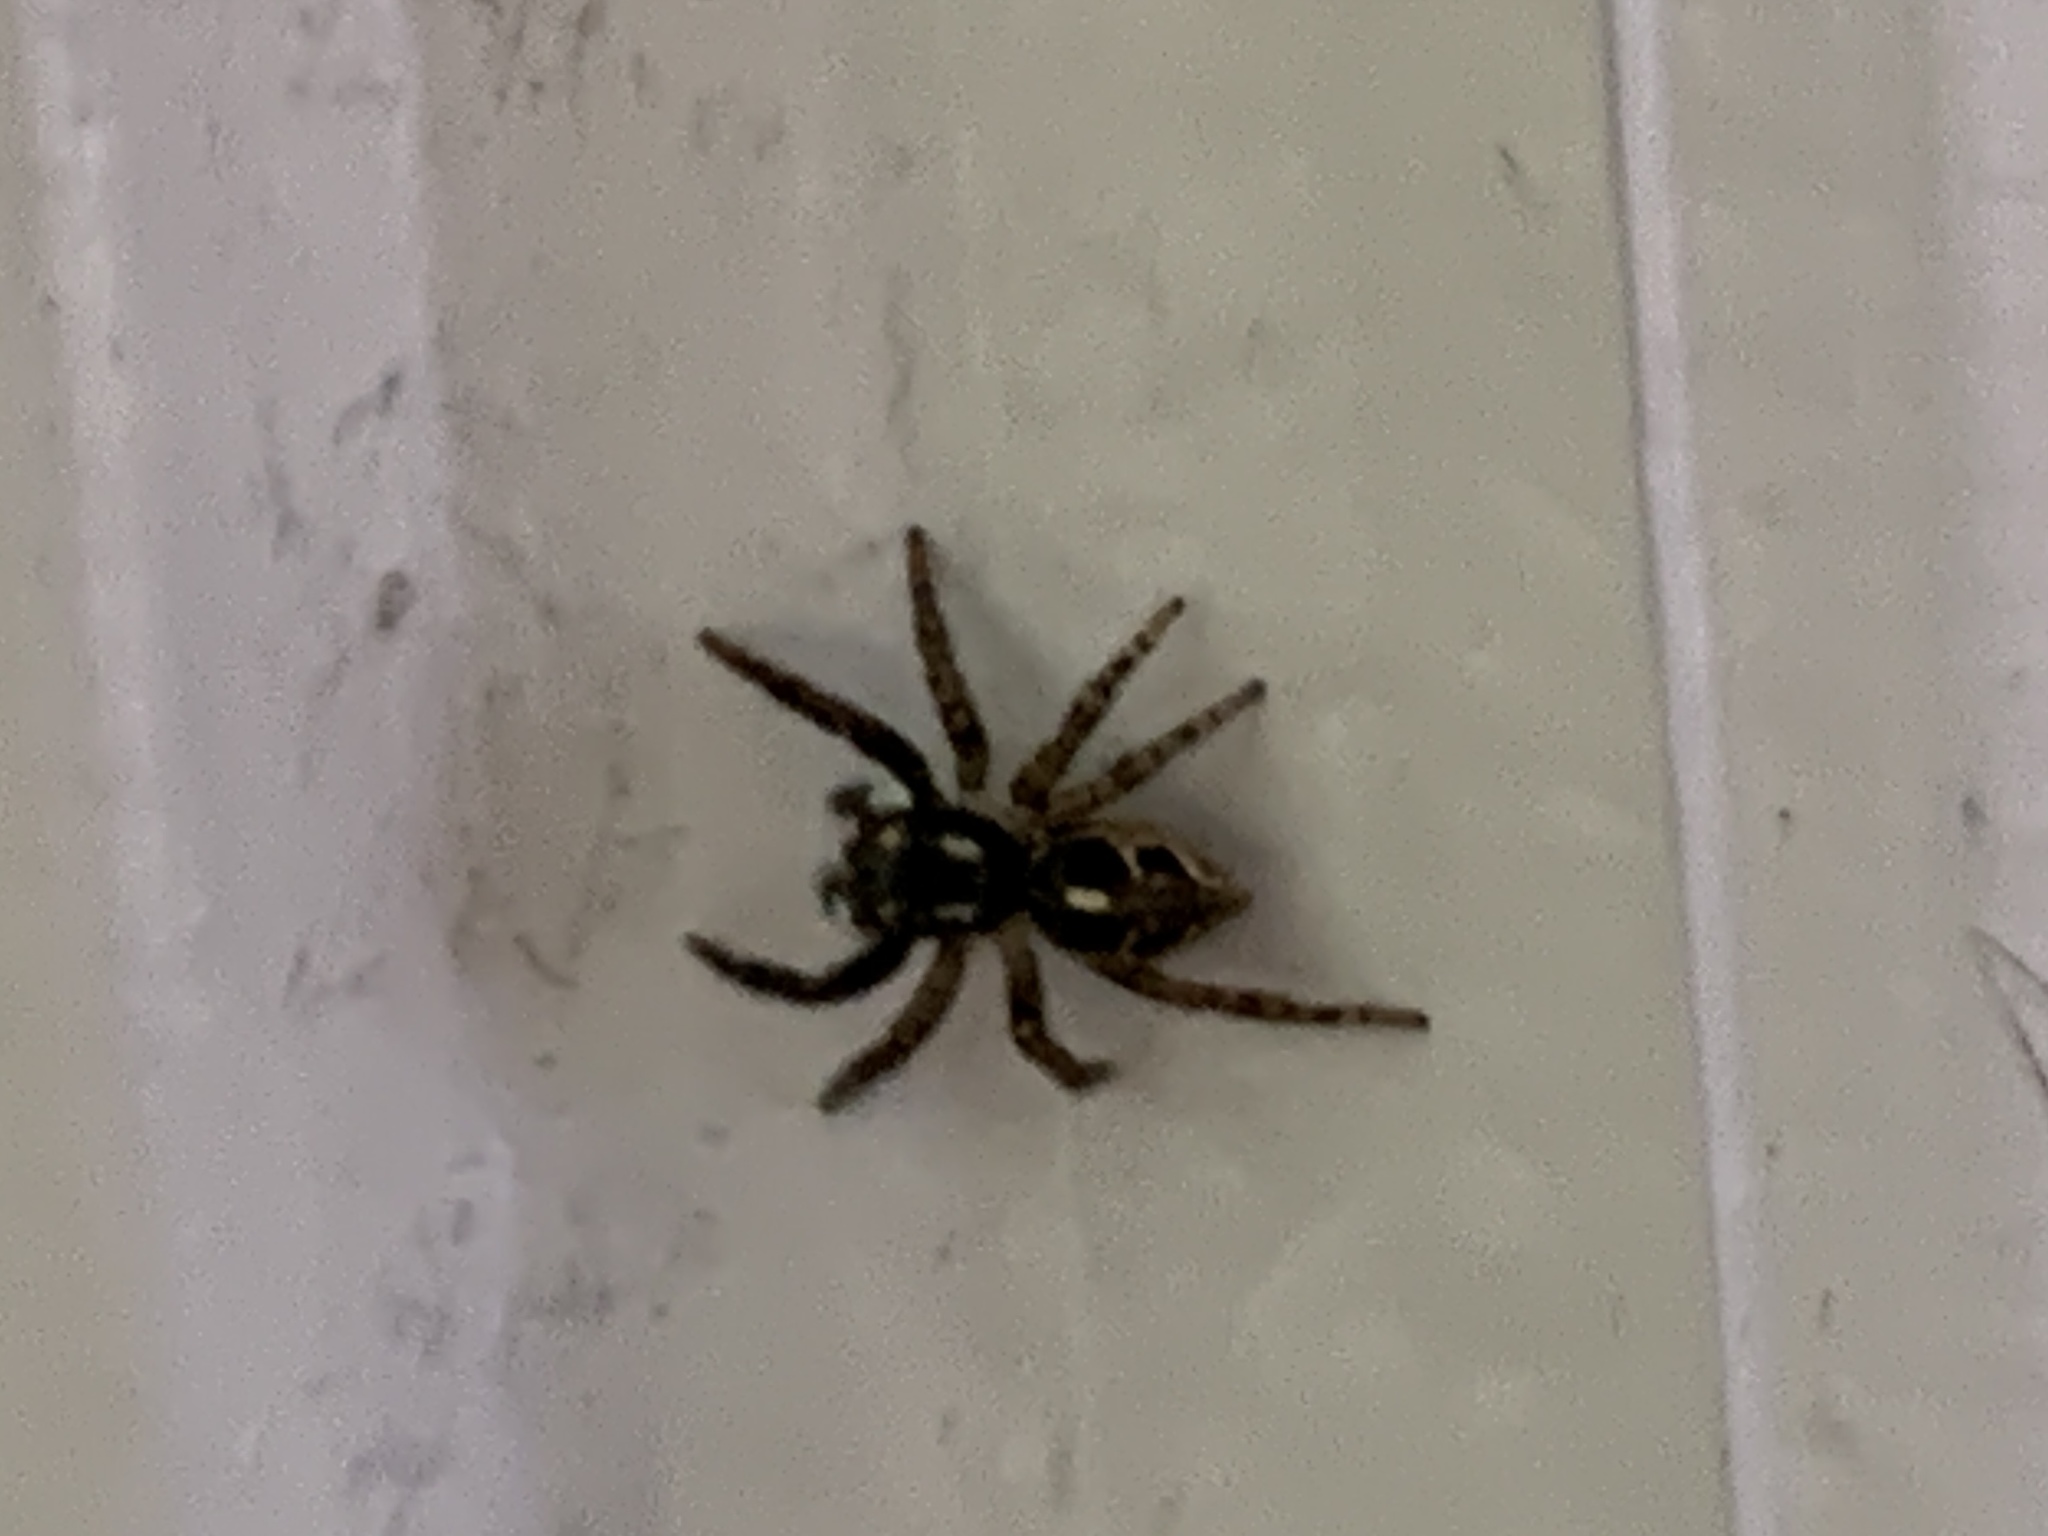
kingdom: Animalia
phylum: Arthropoda
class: Arachnida
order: Araneae
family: Salticidae
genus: Anasaitis
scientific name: Anasaitis canosa
